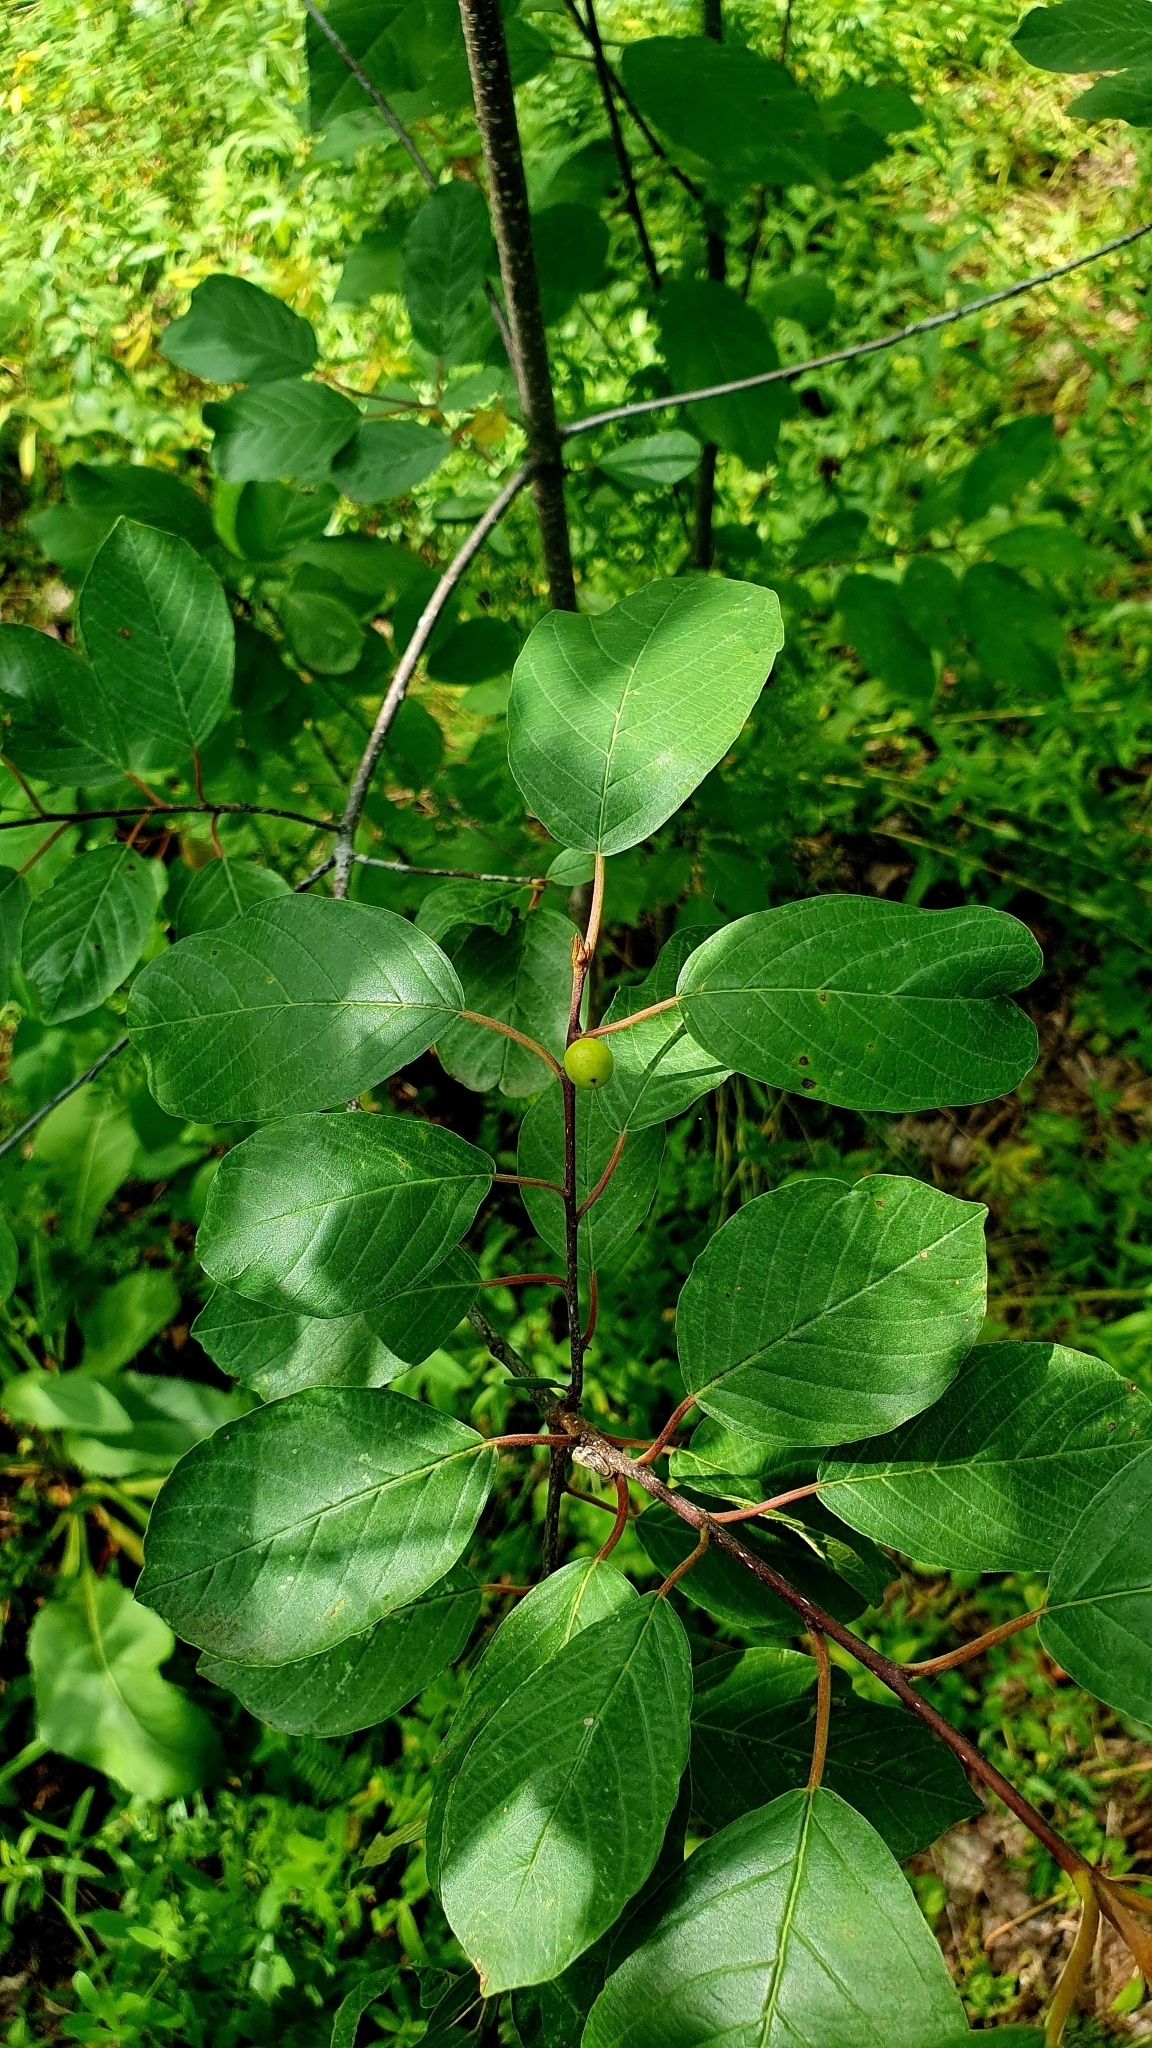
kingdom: Plantae
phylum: Tracheophyta
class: Magnoliopsida
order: Rosales
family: Rhamnaceae
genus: Frangula
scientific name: Frangula alnus
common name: Alder buckthorn
